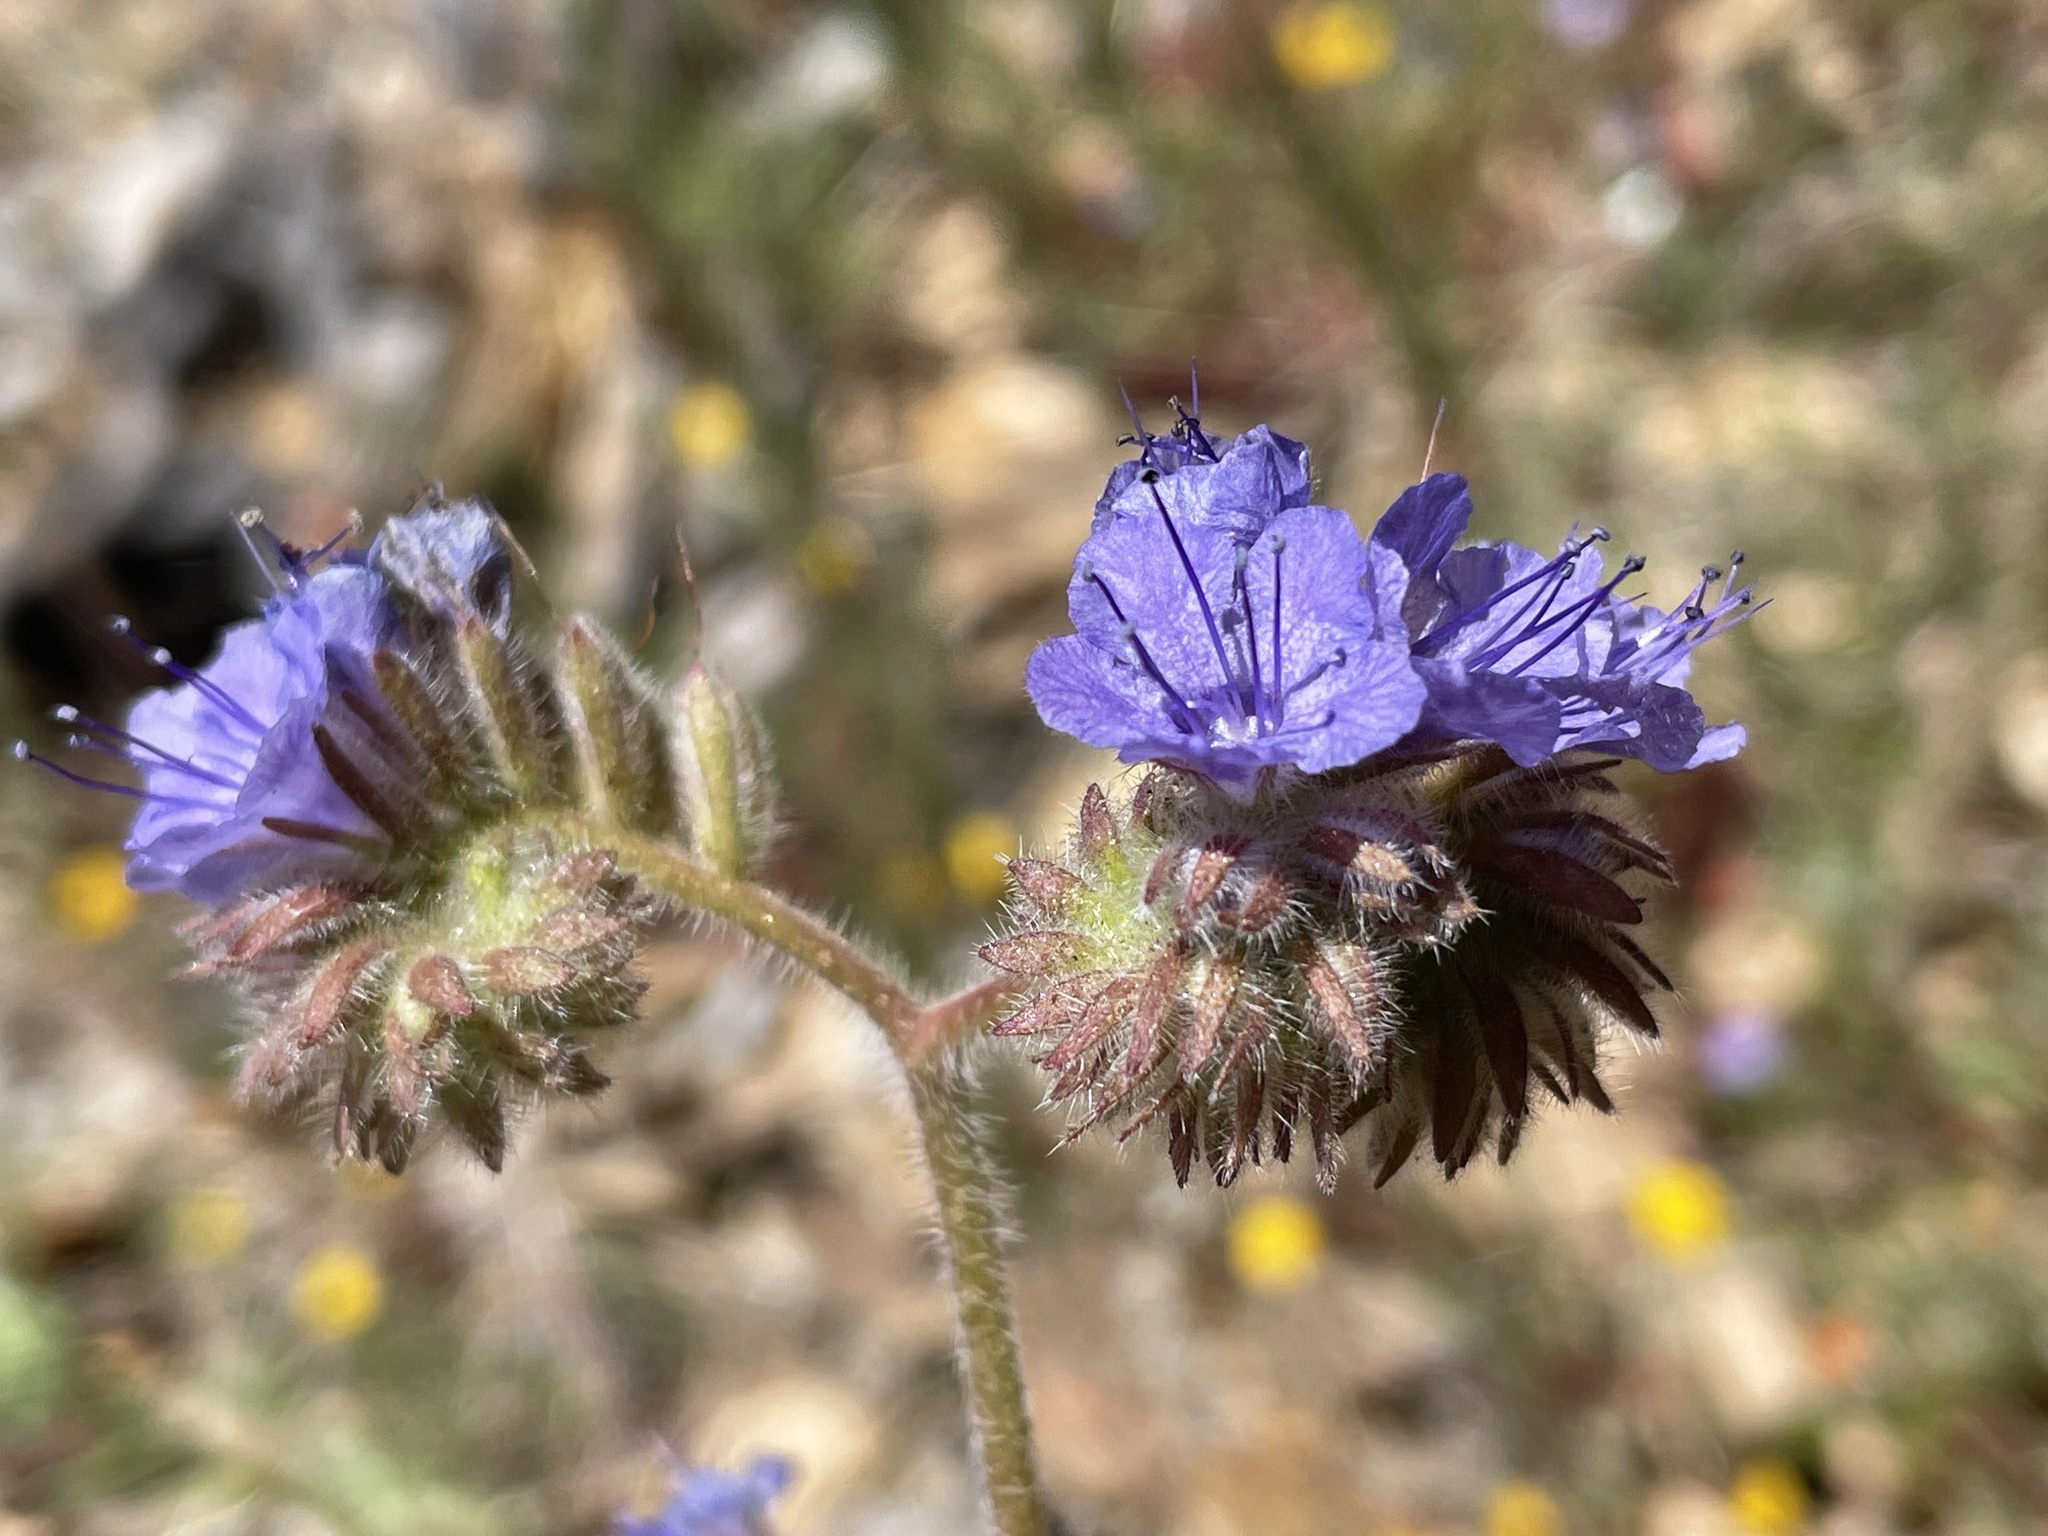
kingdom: Plantae
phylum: Tracheophyta
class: Magnoliopsida
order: Boraginales
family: Hydrophyllaceae
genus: Phacelia
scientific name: Phacelia distans
